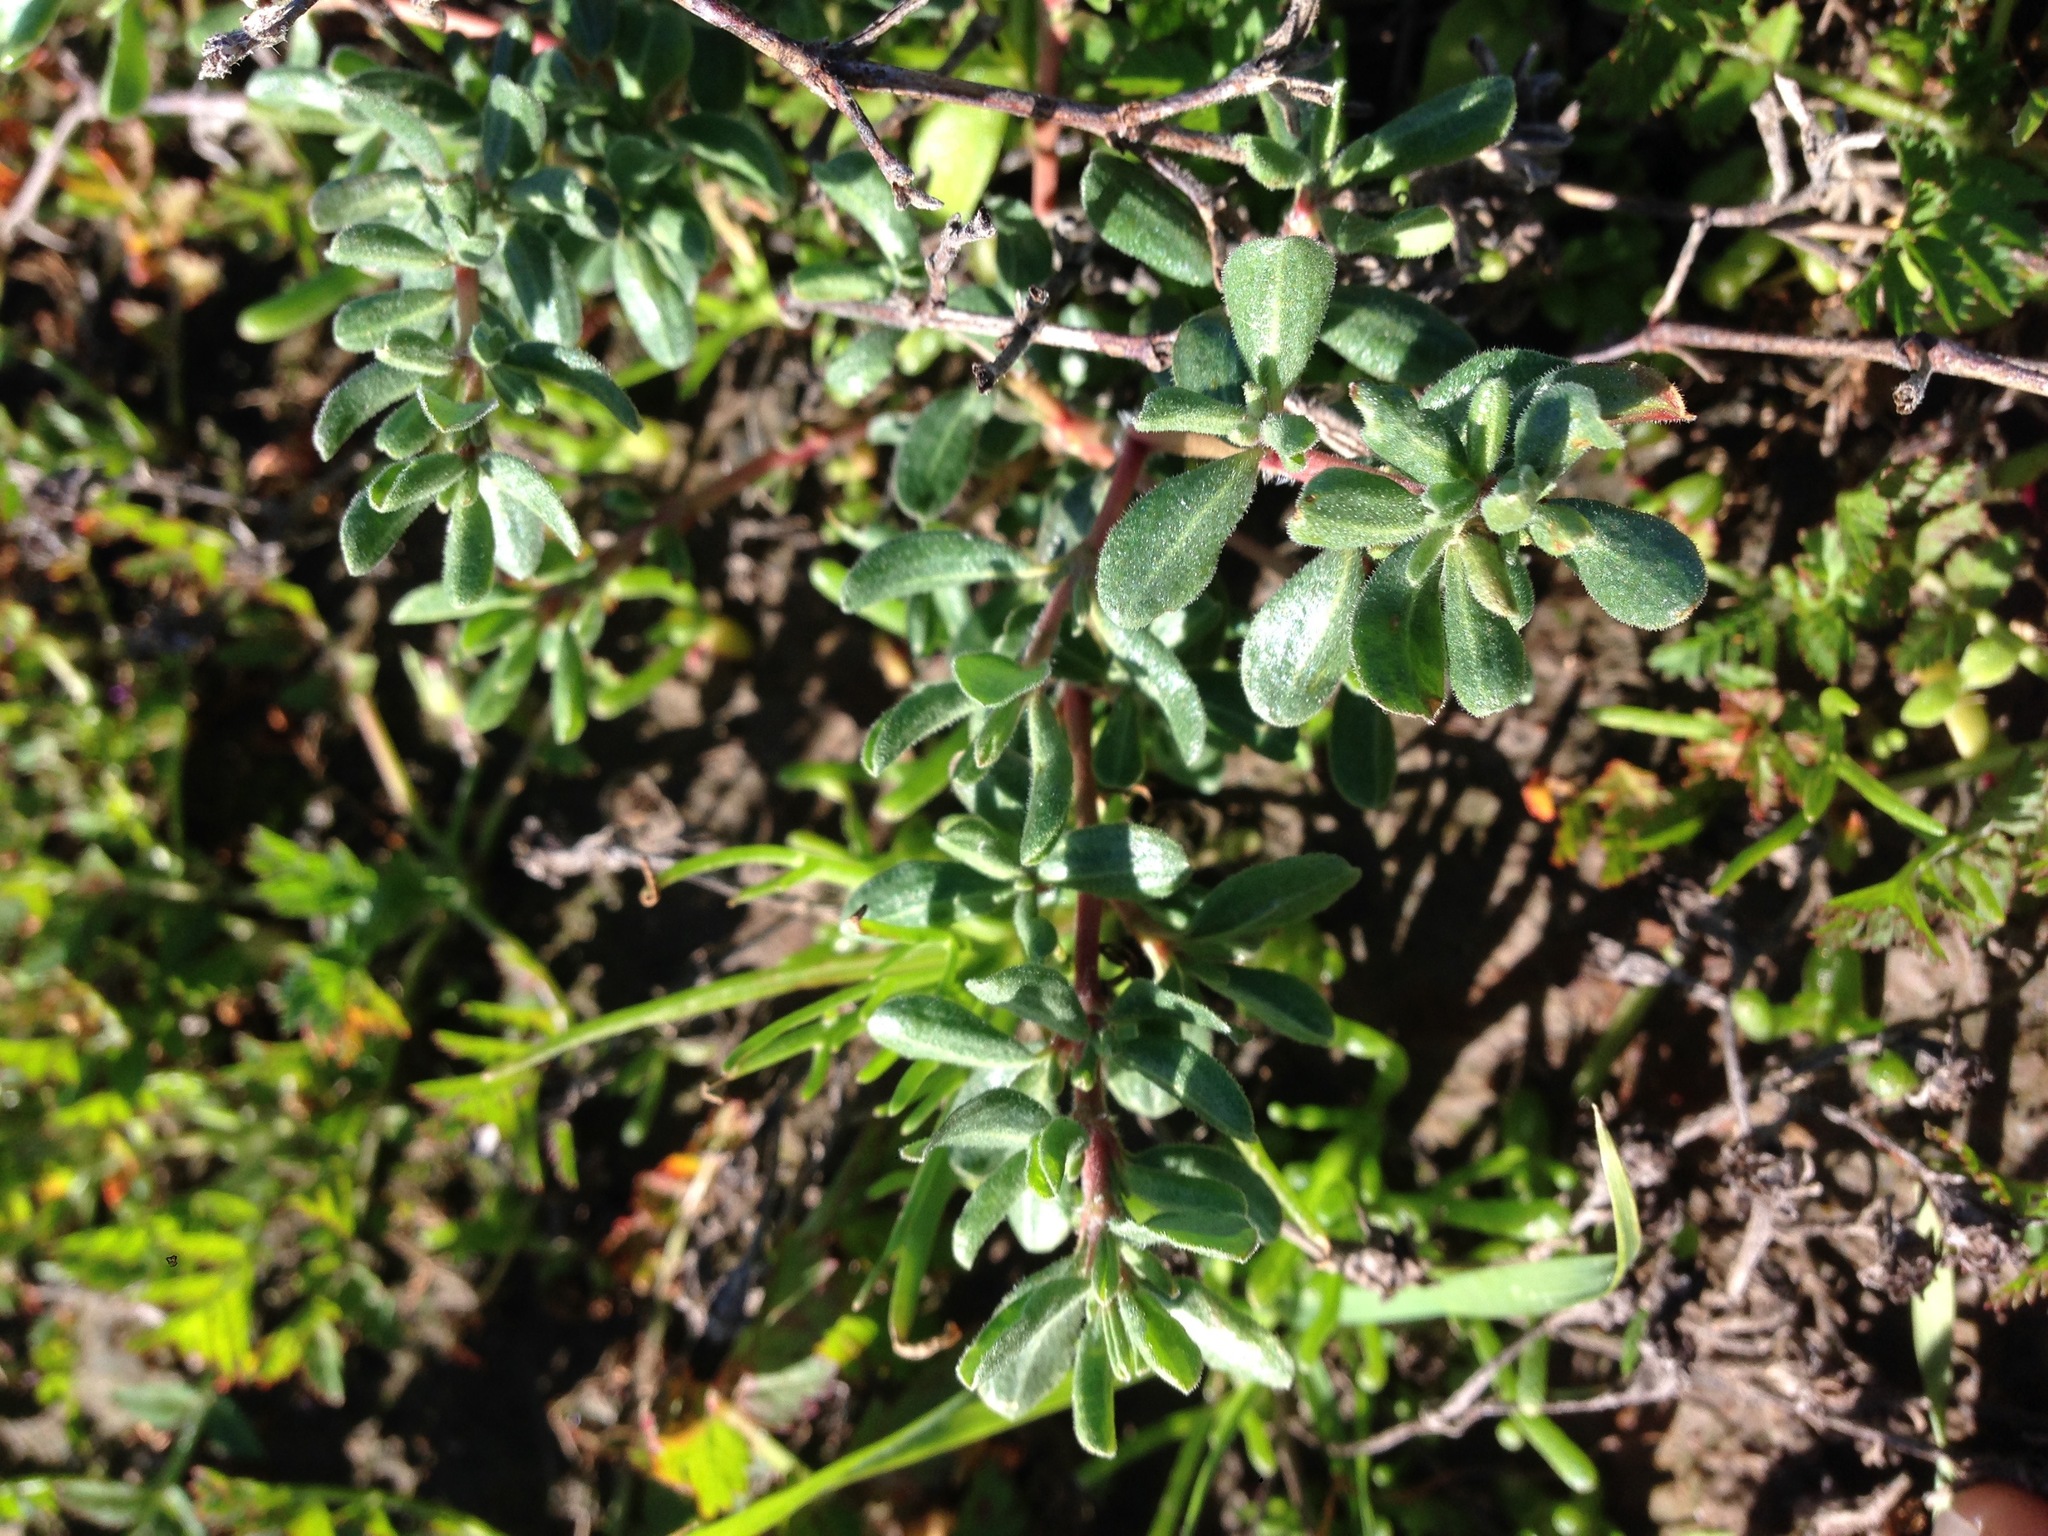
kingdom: Plantae
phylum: Tracheophyta
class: Magnoliopsida
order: Caryophyllales
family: Frankeniaceae
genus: Frankenia
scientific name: Frankenia salina
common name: Alkali seaheath
